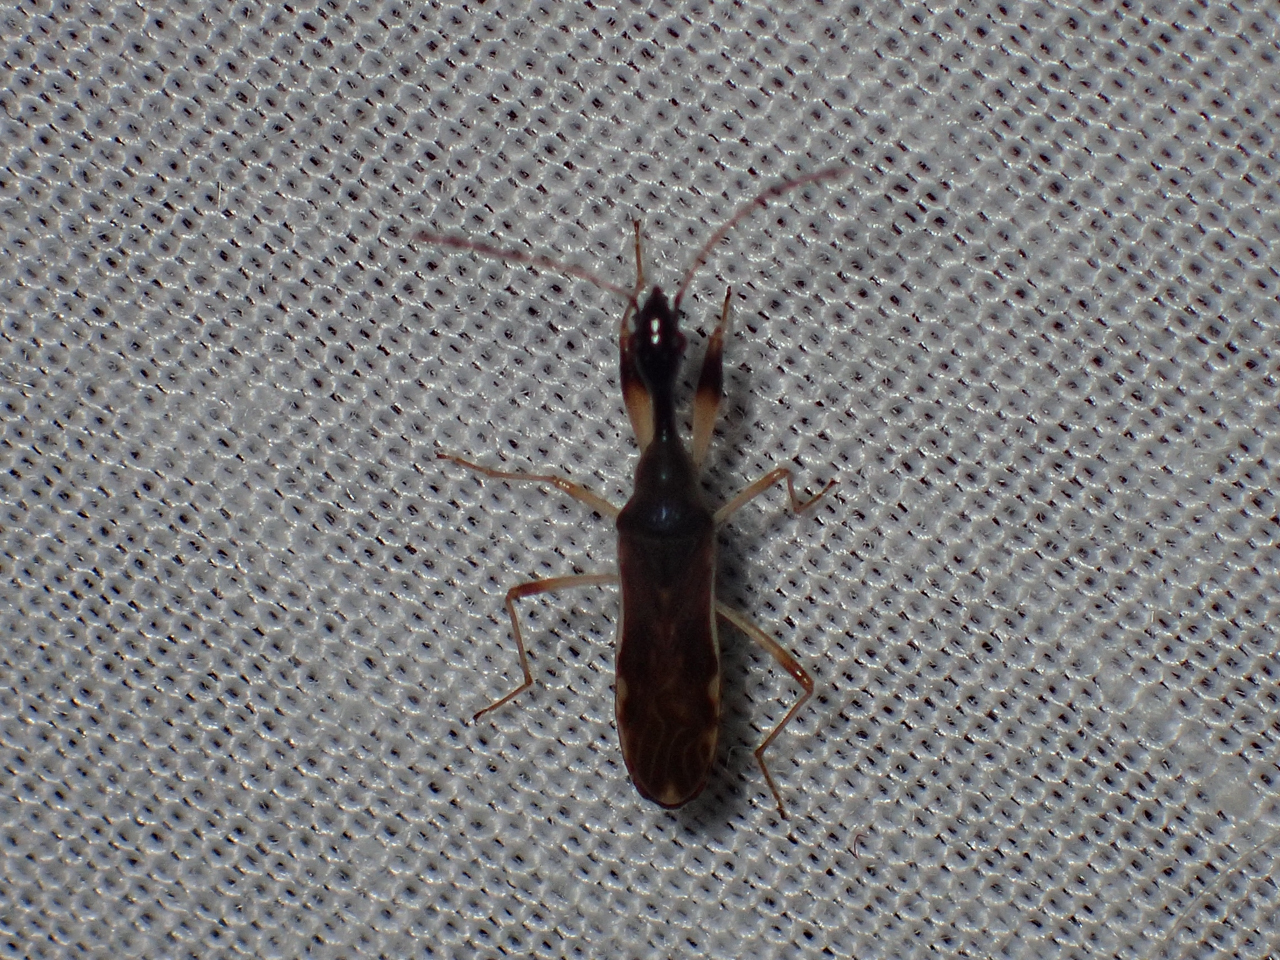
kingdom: Animalia
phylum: Arthropoda
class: Insecta
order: Hemiptera
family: Rhyparochromidae
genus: Myodocha
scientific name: Myodocha serripes
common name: Long-necked seed bug
